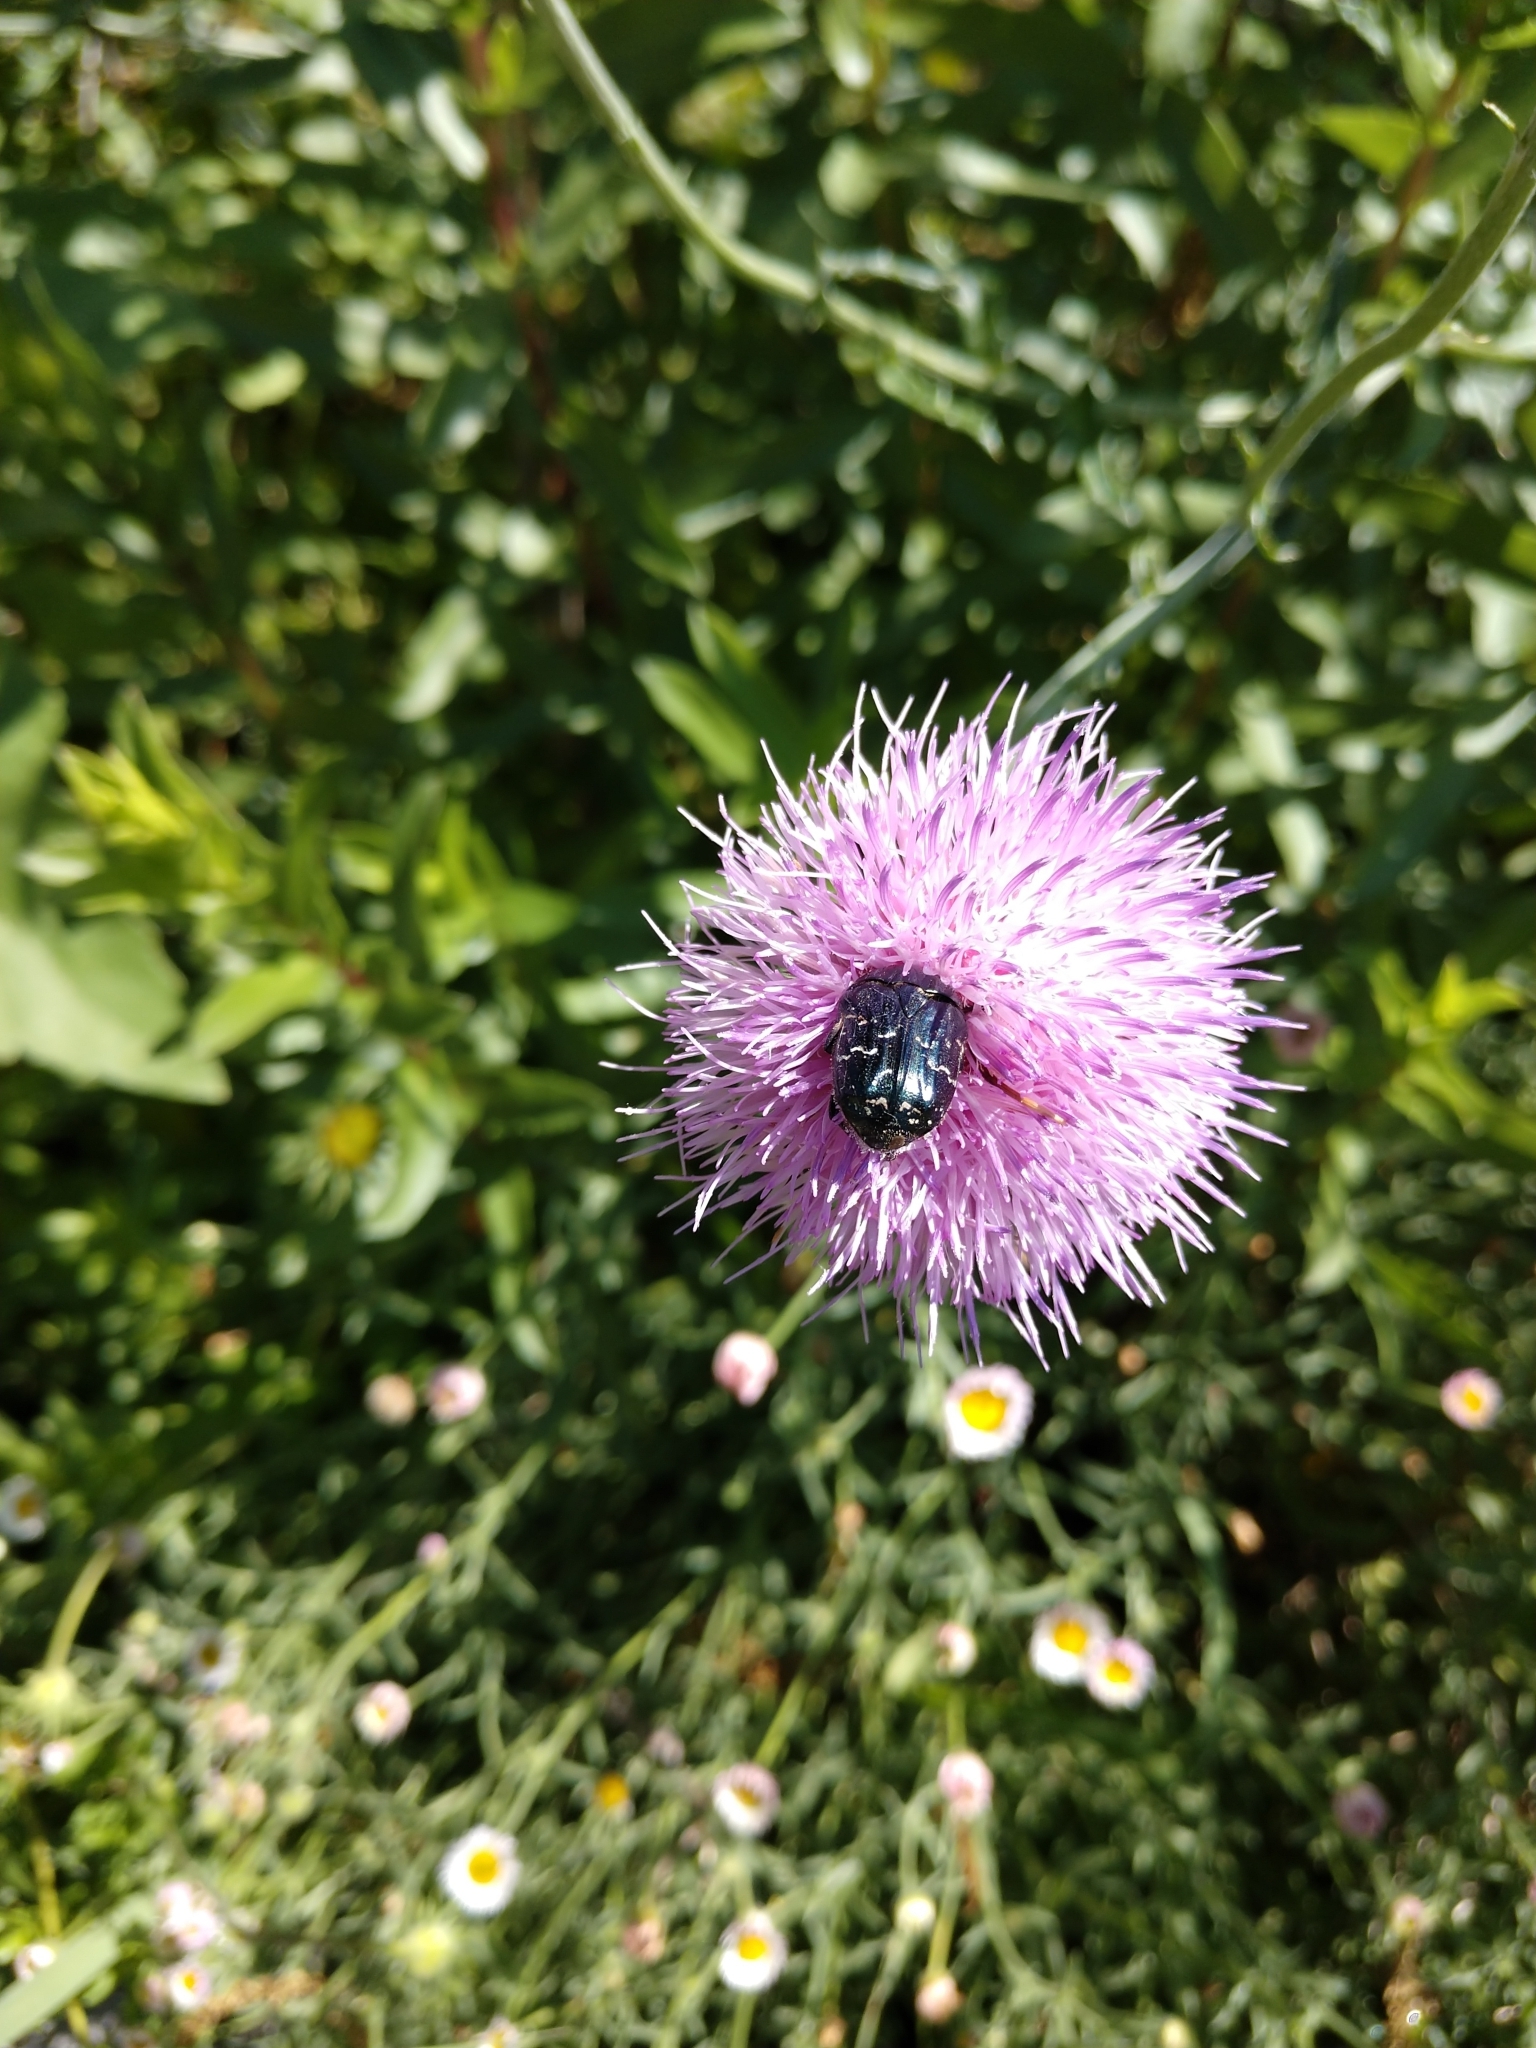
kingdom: Animalia
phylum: Arthropoda
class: Insecta
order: Coleoptera
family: Scarabaeidae
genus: Euphoria
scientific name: Euphoria sepulcralis
